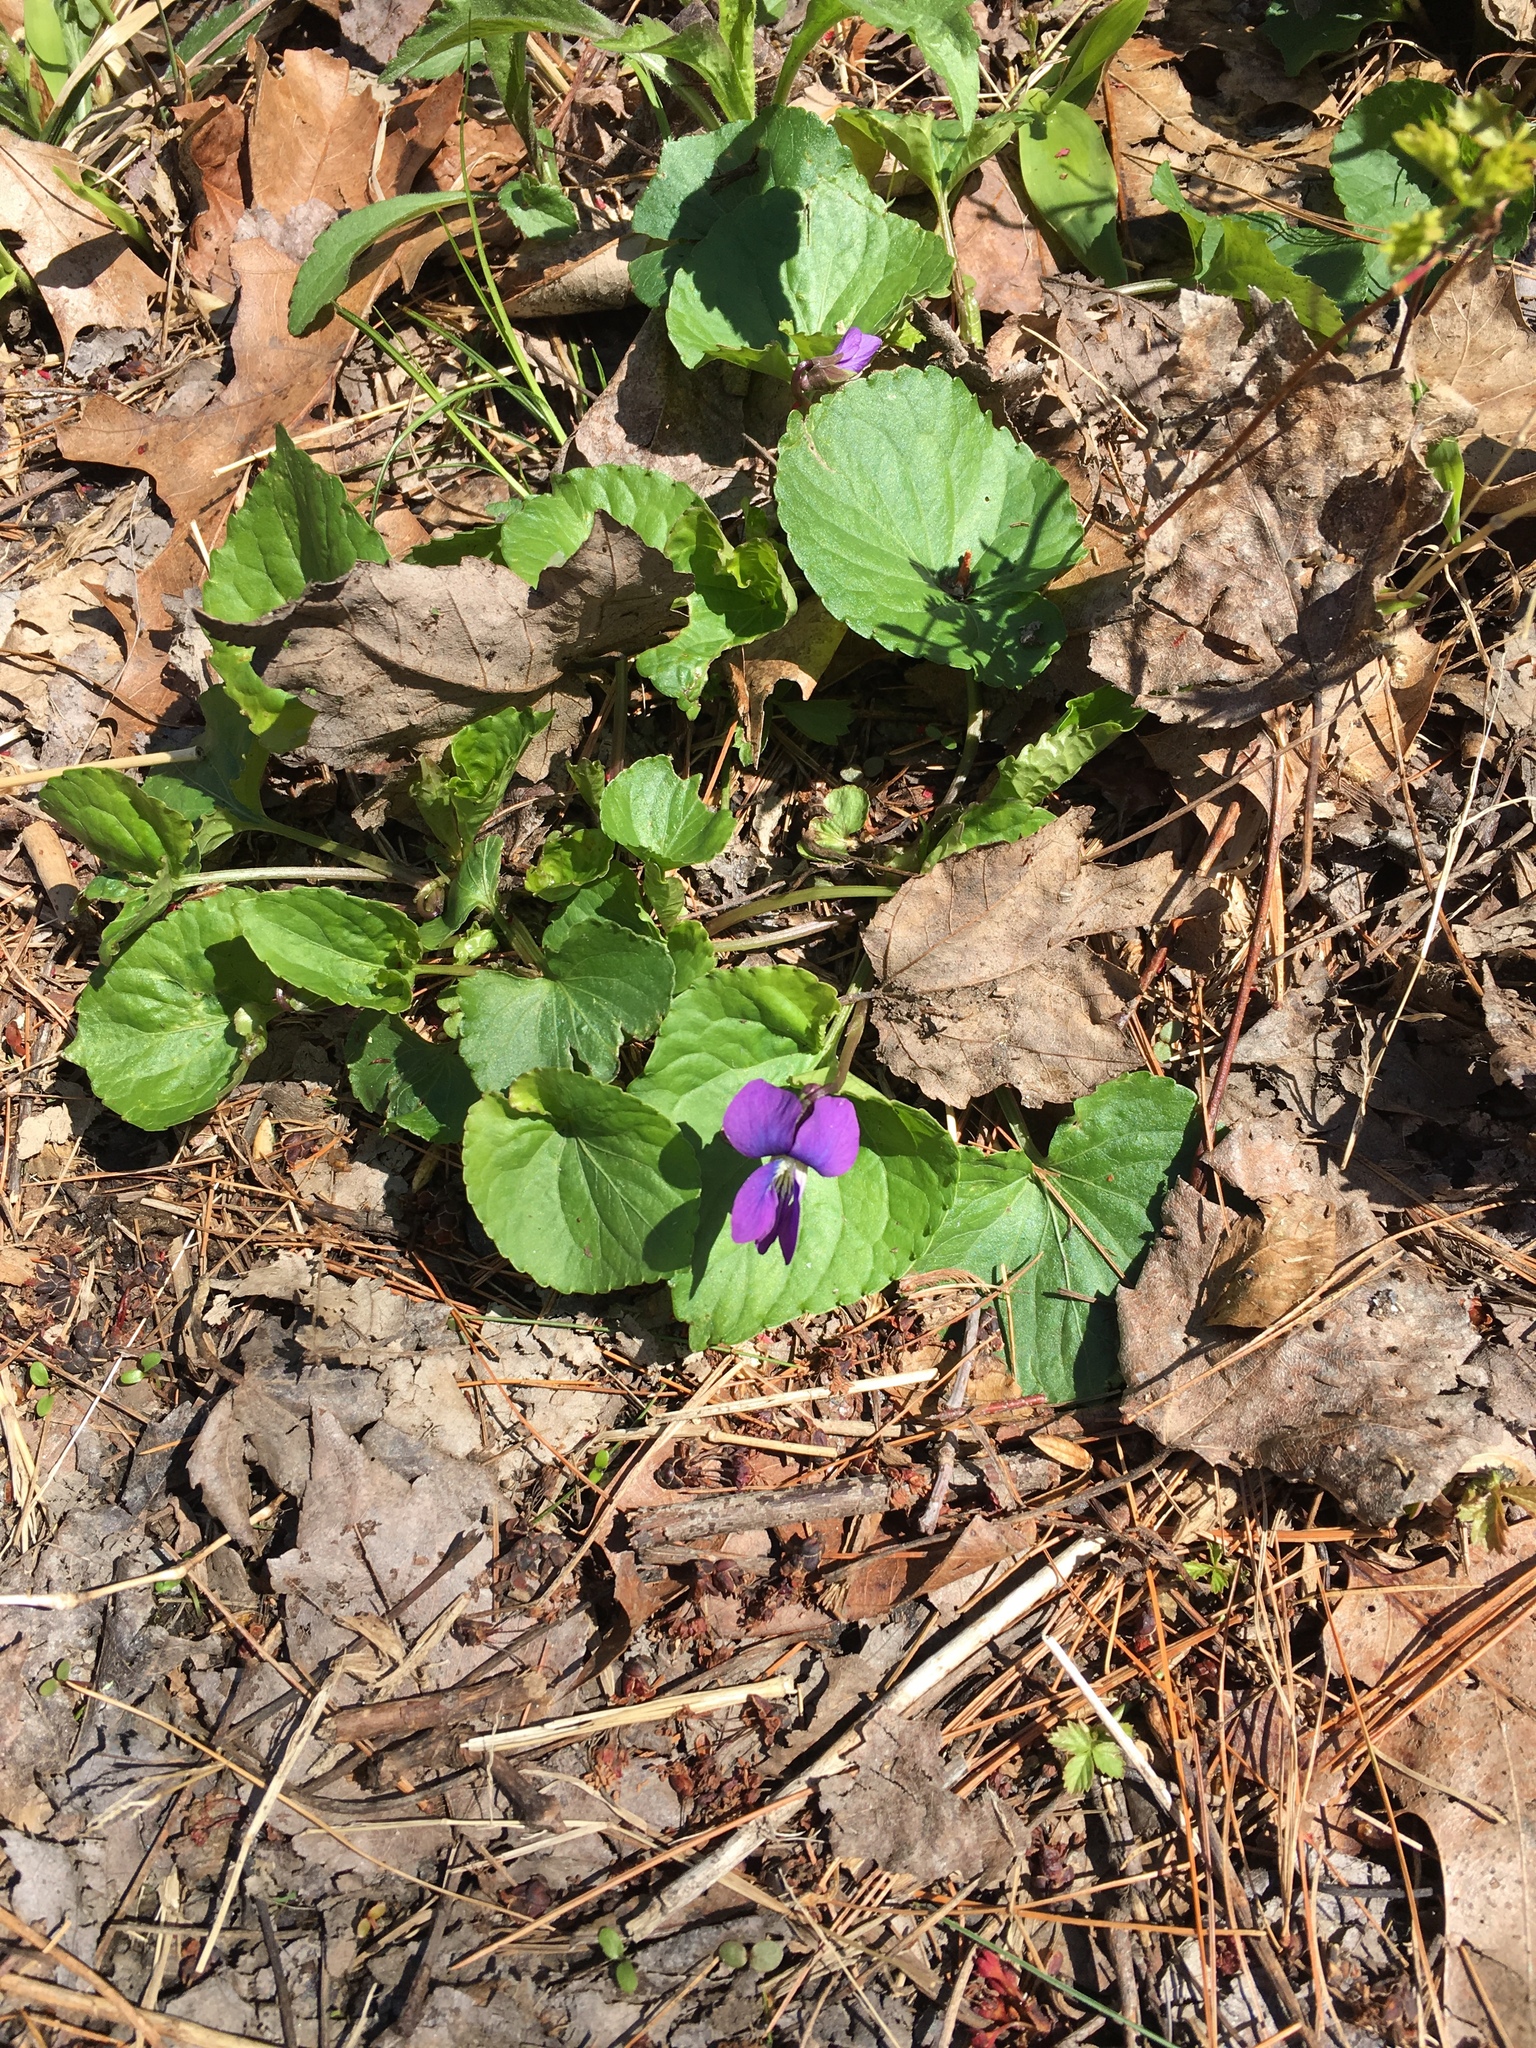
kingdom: Plantae
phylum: Tracheophyta
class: Magnoliopsida
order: Malpighiales
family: Violaceae
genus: Viola
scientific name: Viola sororia
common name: Dooryard violet
